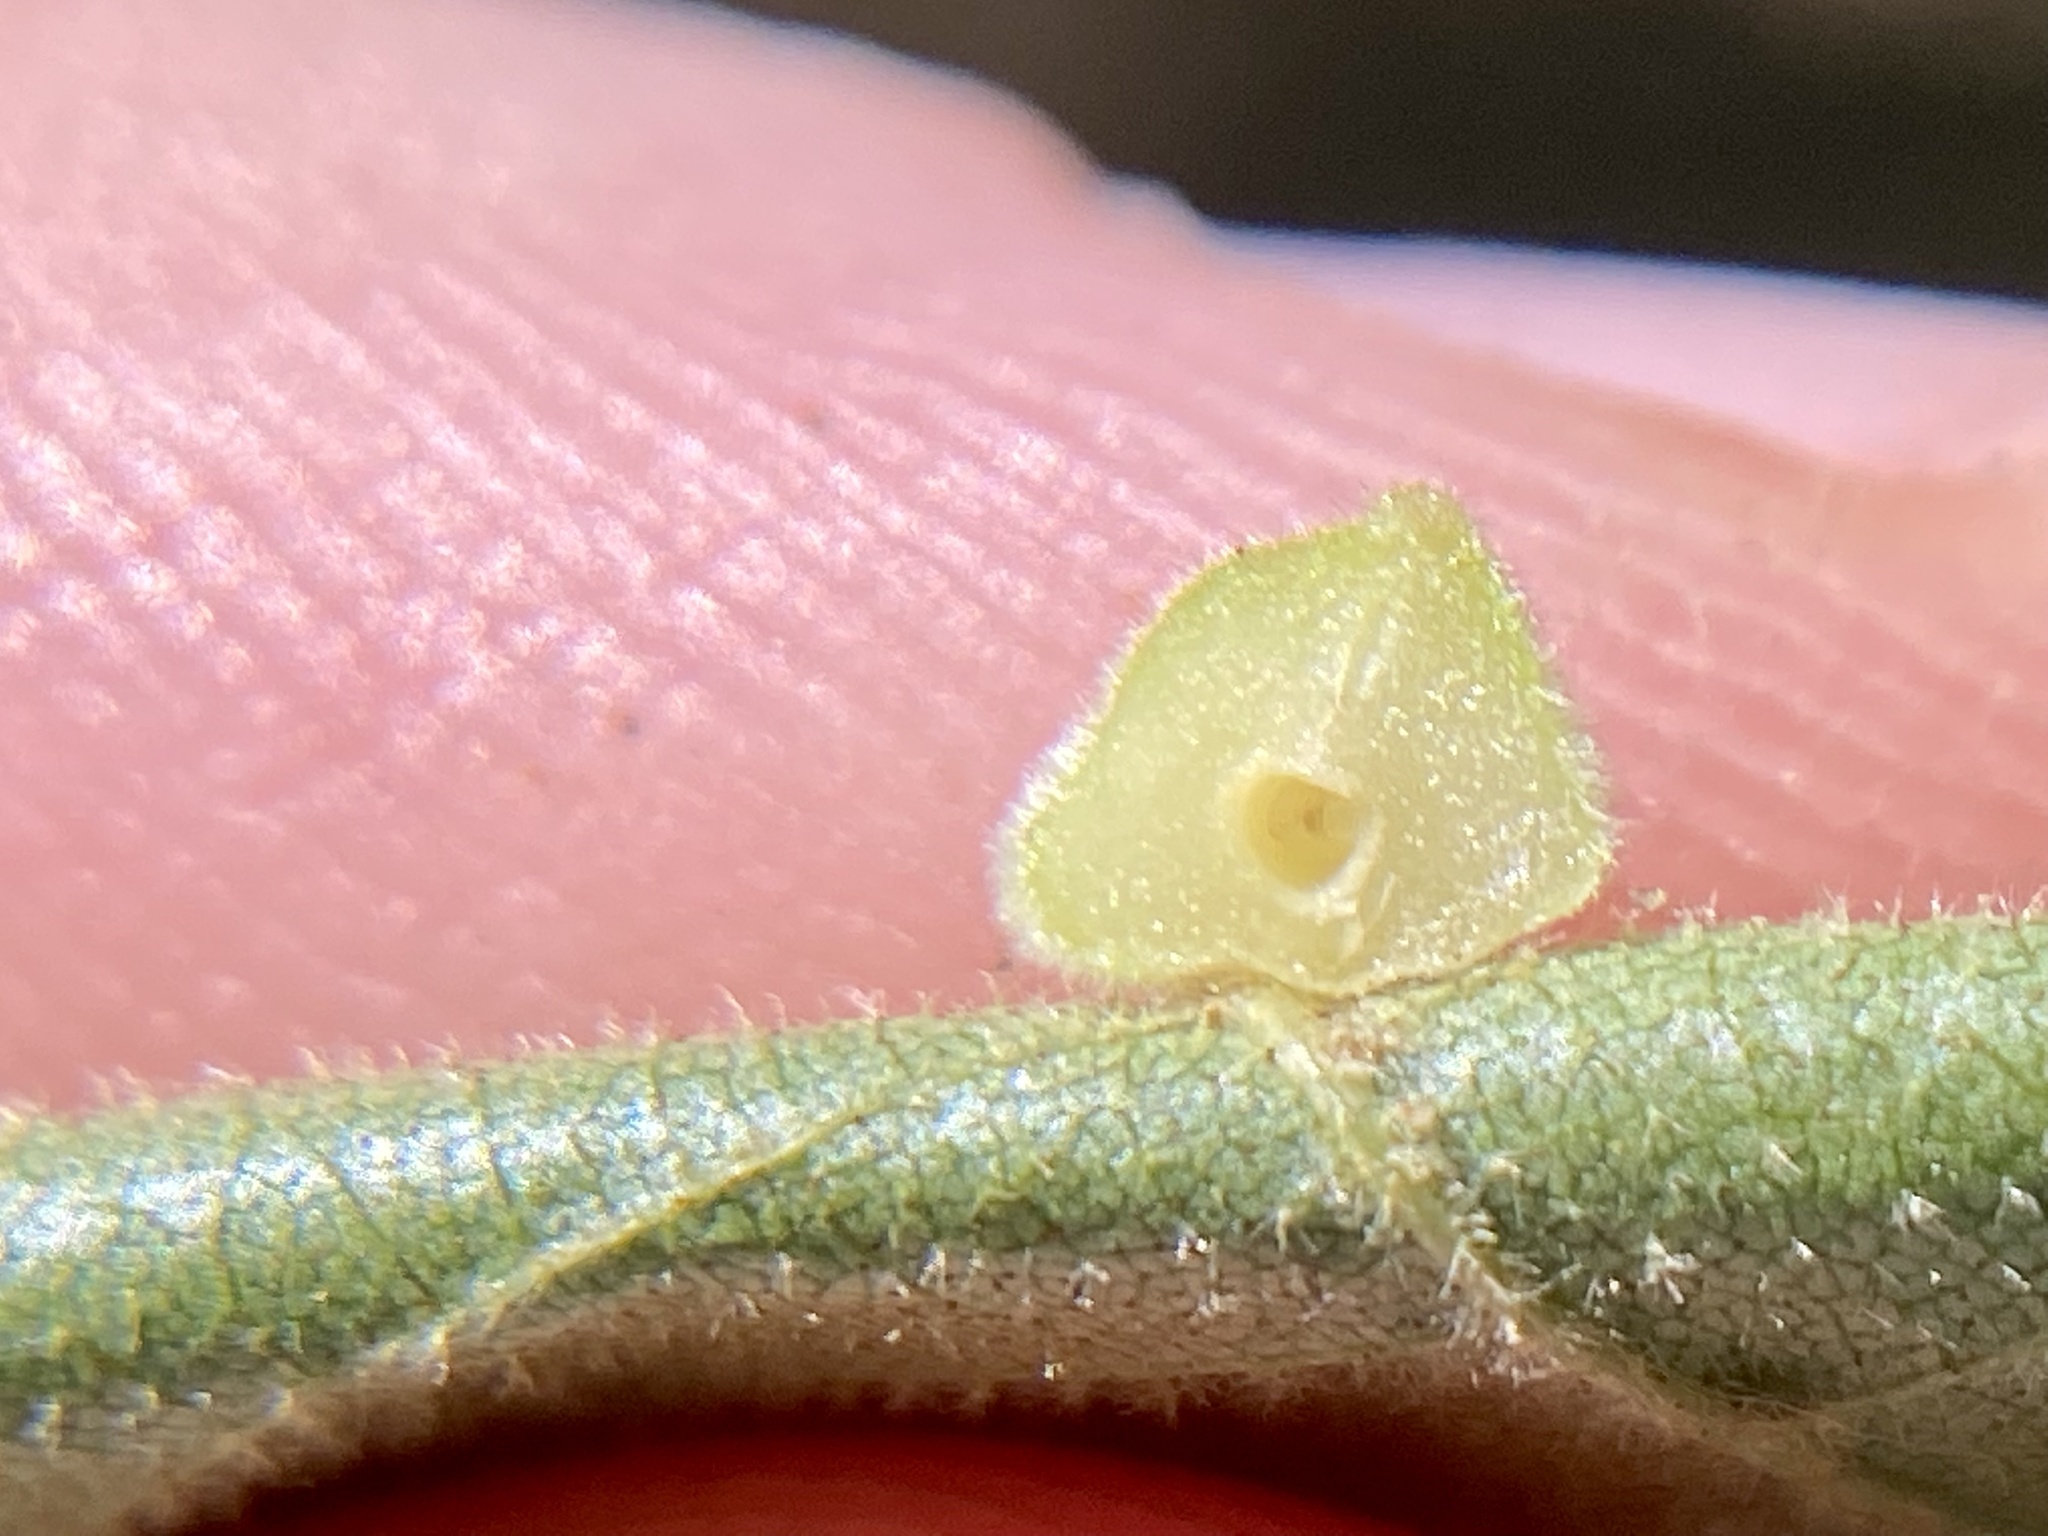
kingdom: Animalia
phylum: Arthropoda
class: Insecta
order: Diptera
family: Cecidomyiidae
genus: Caryomyia
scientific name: Caryomyia persicoides
